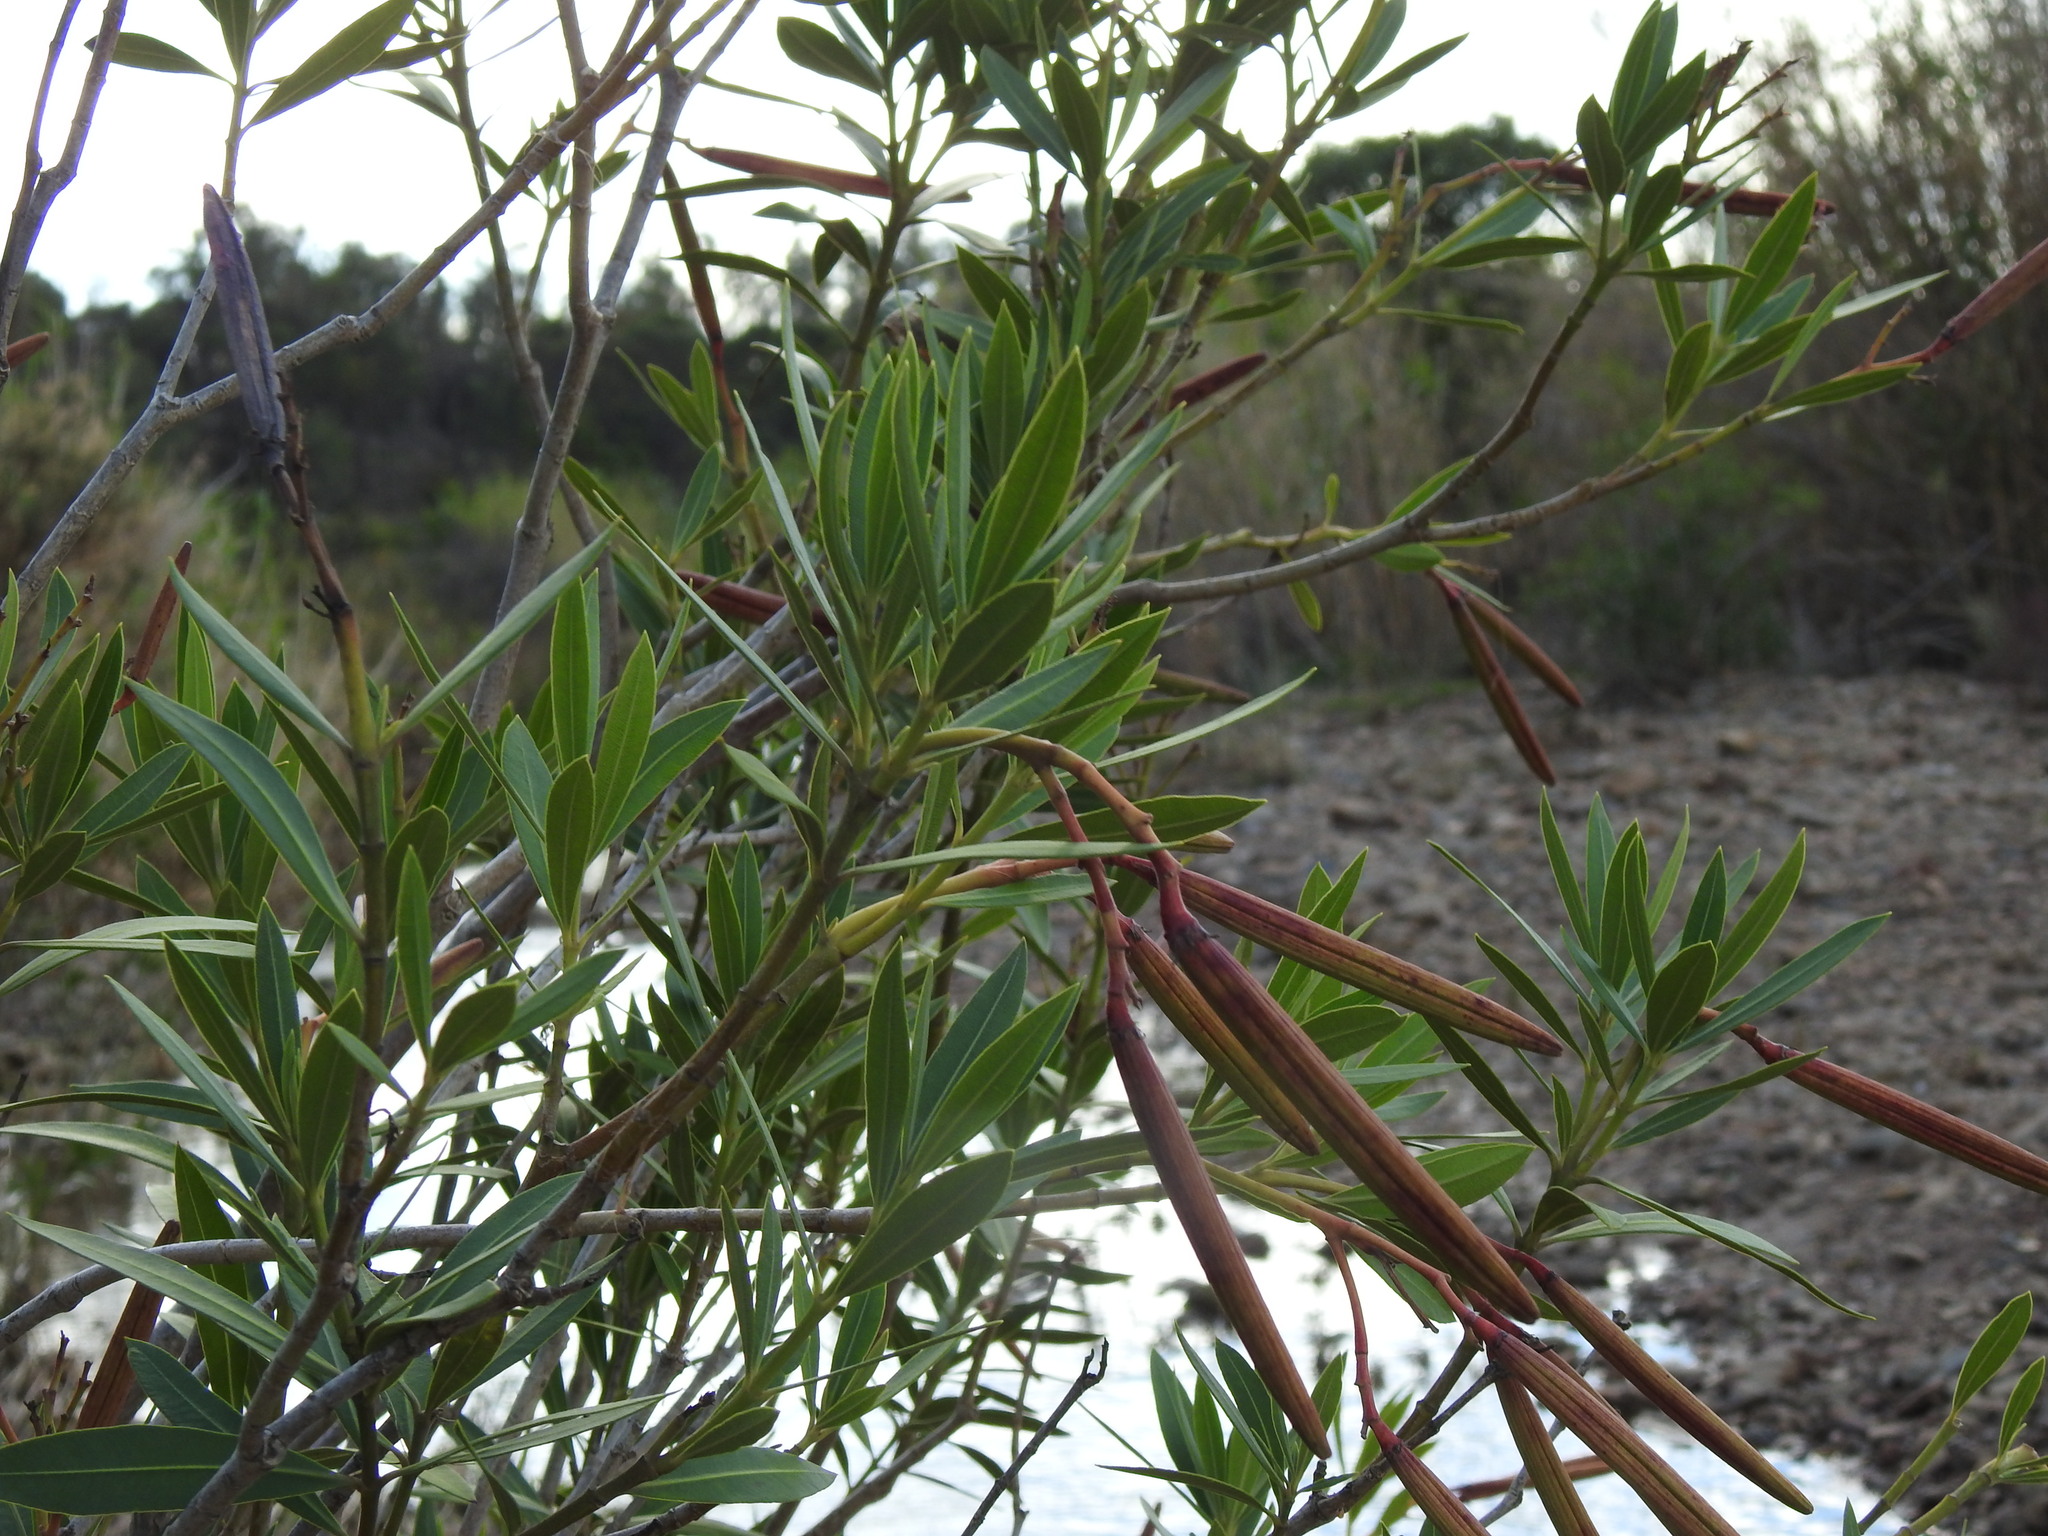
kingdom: Plantae
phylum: Tracheophyta
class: Magnoliopsida
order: Gentianales
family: Apocynaceae
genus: Nerium
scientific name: Nerium oleander
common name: Oleander
